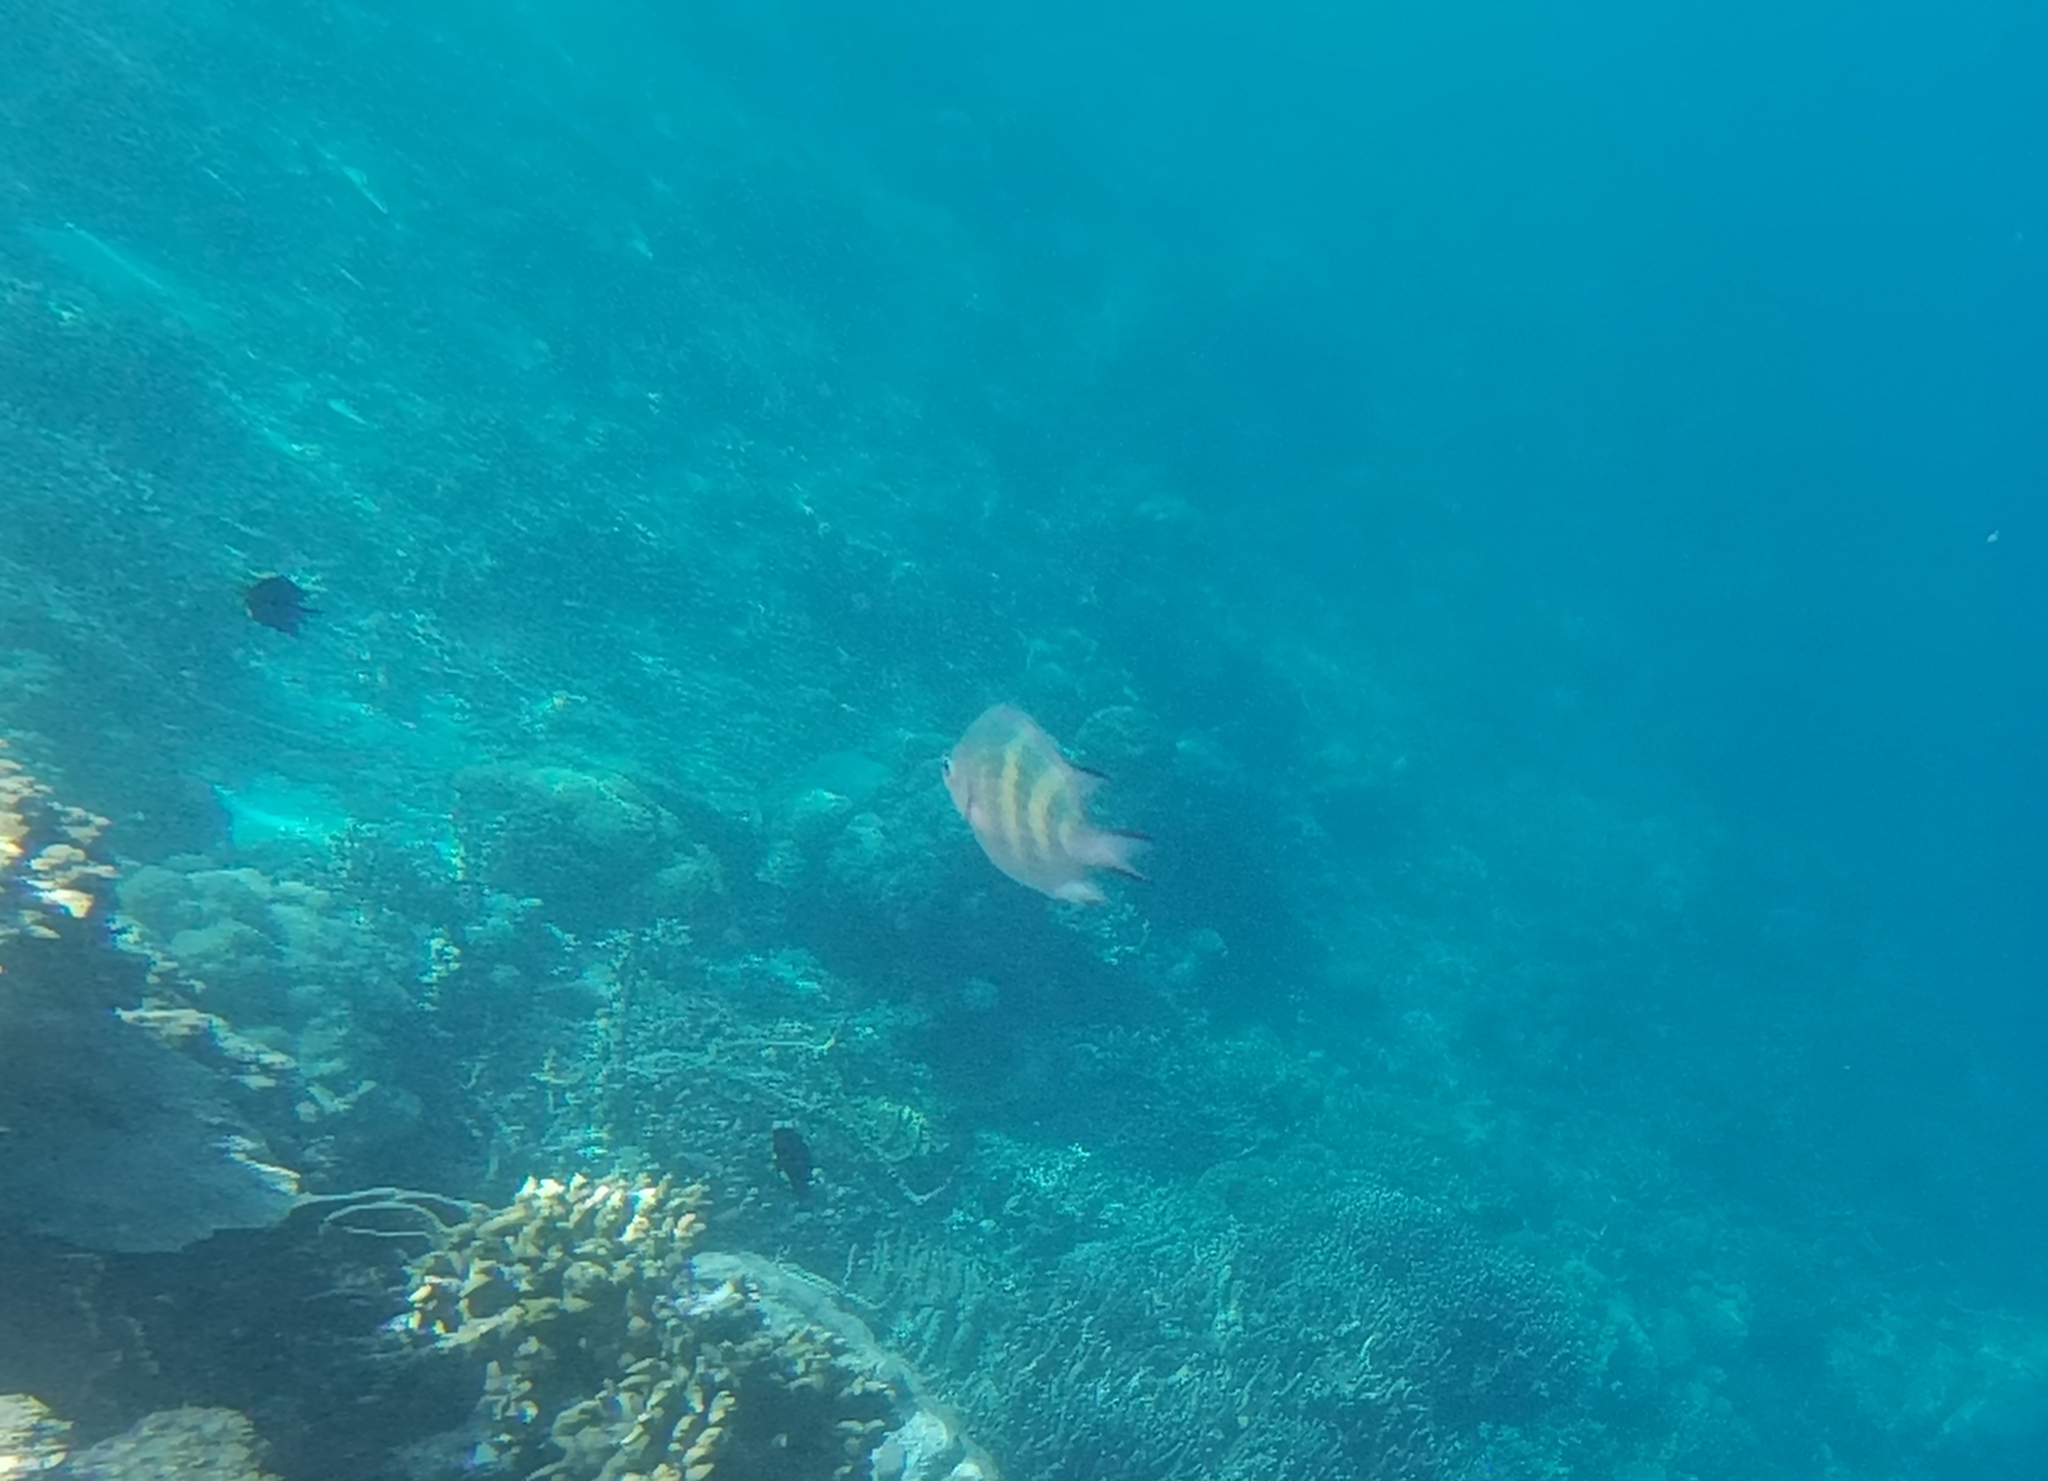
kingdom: Animalia
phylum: Chordata
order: Perciformes
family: Pomacentridae
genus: Amblyglyphidodon
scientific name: Amblyglyphidodon curacao
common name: Staghorn damsel
